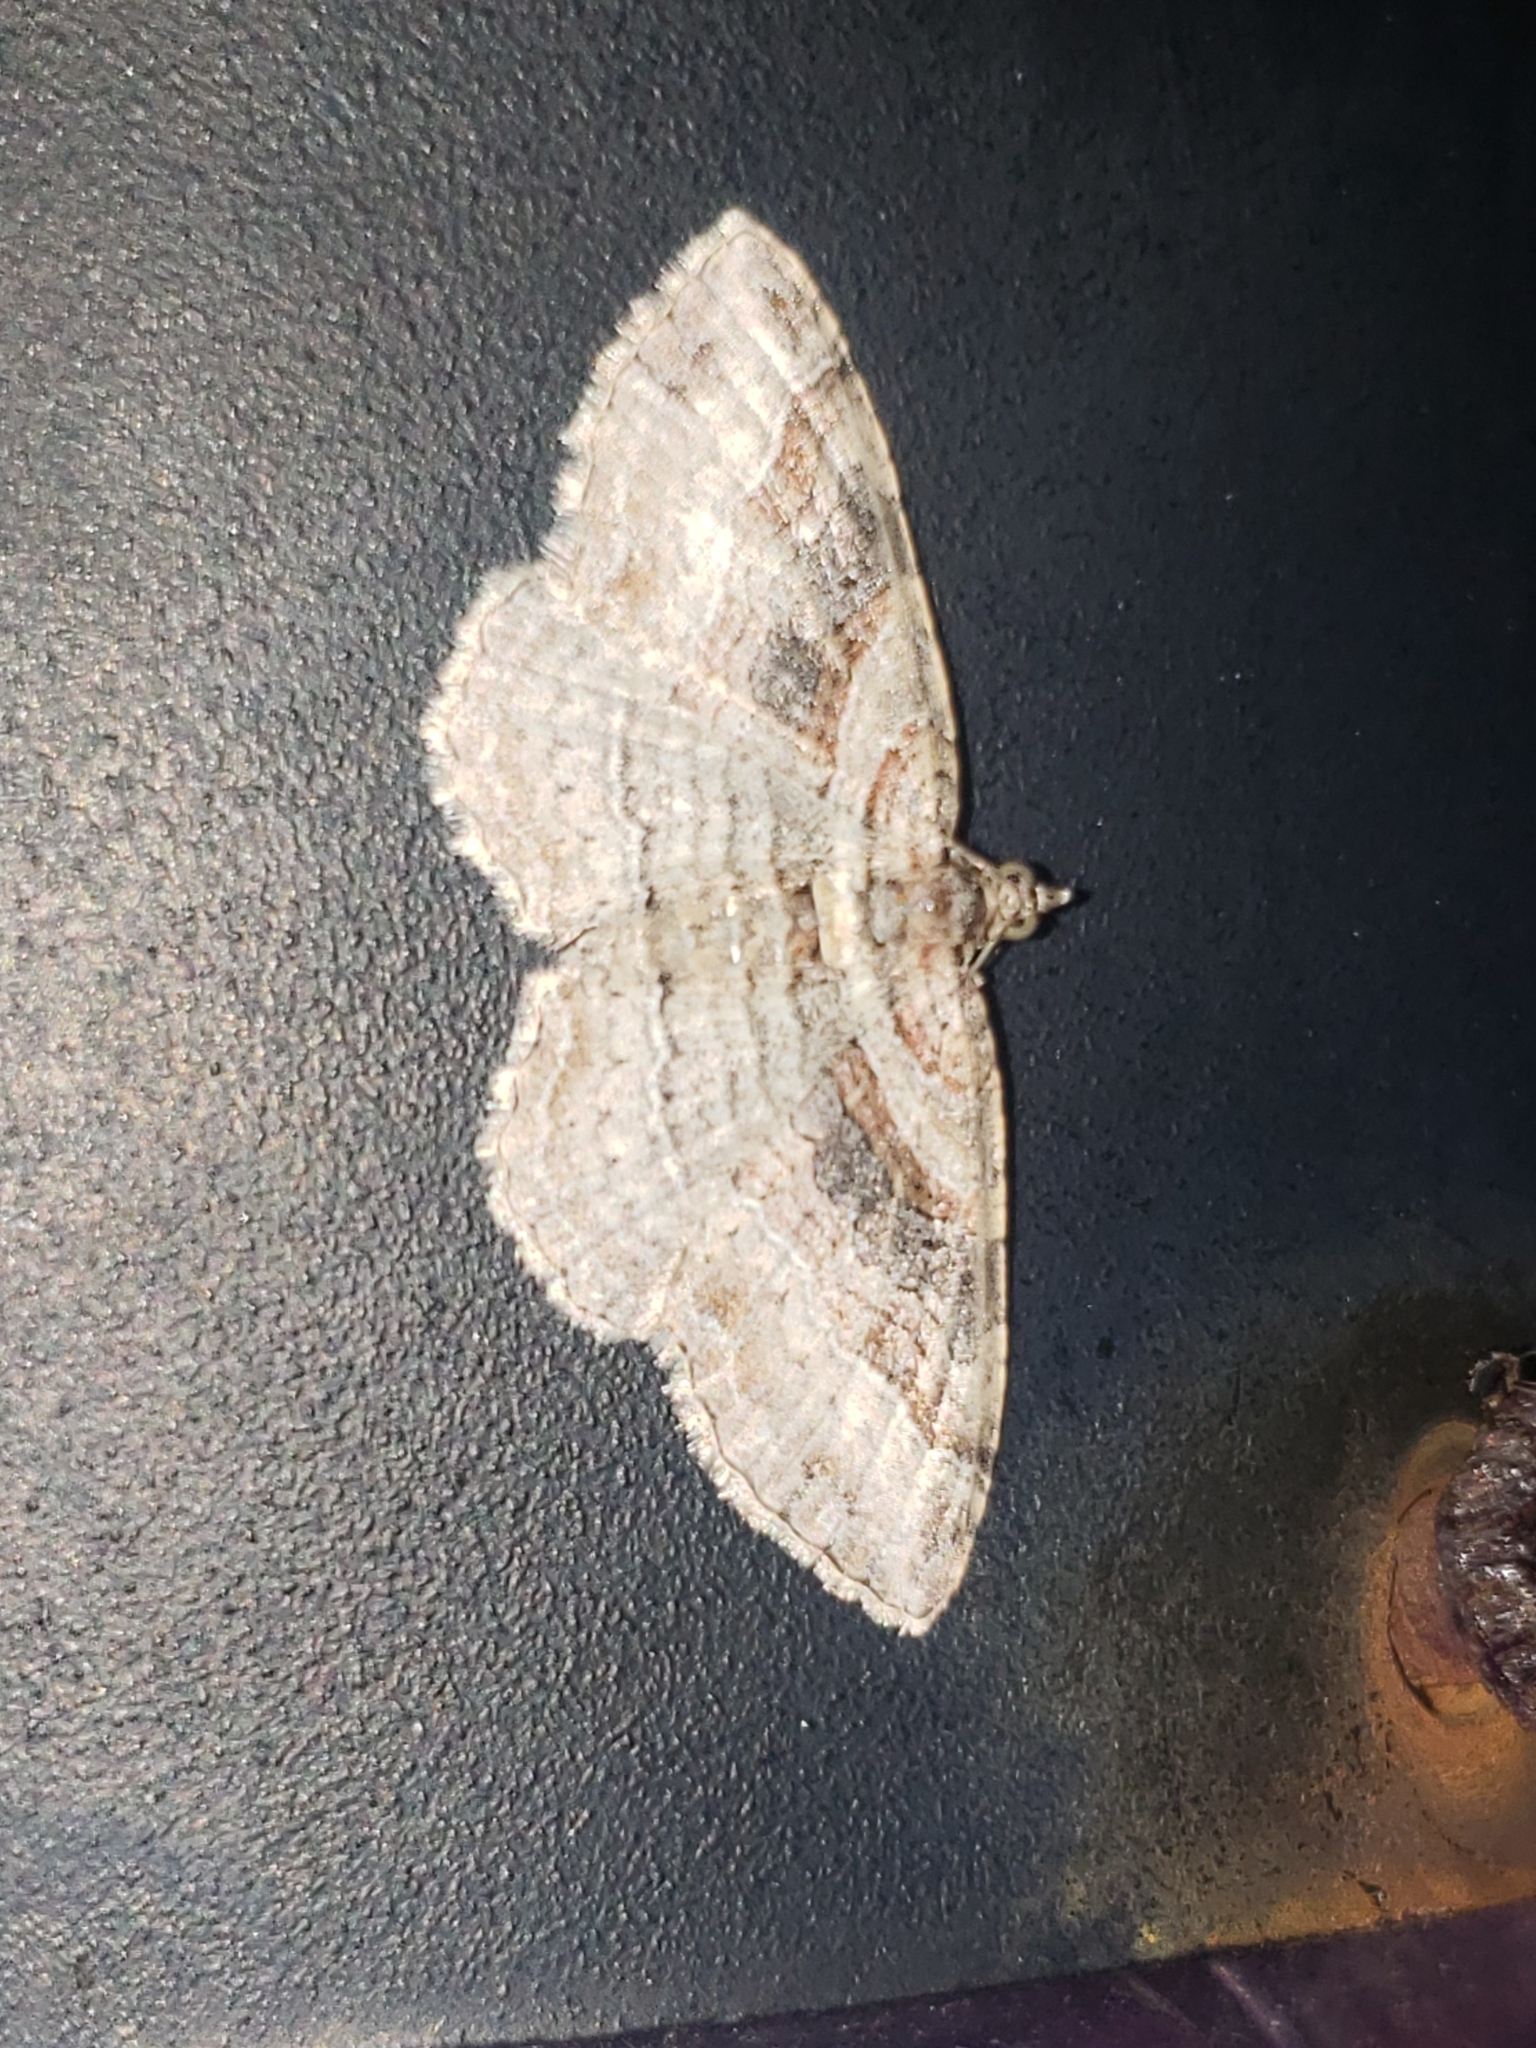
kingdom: Animalia
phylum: Arthropoda
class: Insecta
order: Lepidoptera
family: Geometridae
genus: Costaconvexa
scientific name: Costaconvexa centrostrigaria
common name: Bent-line carpet
